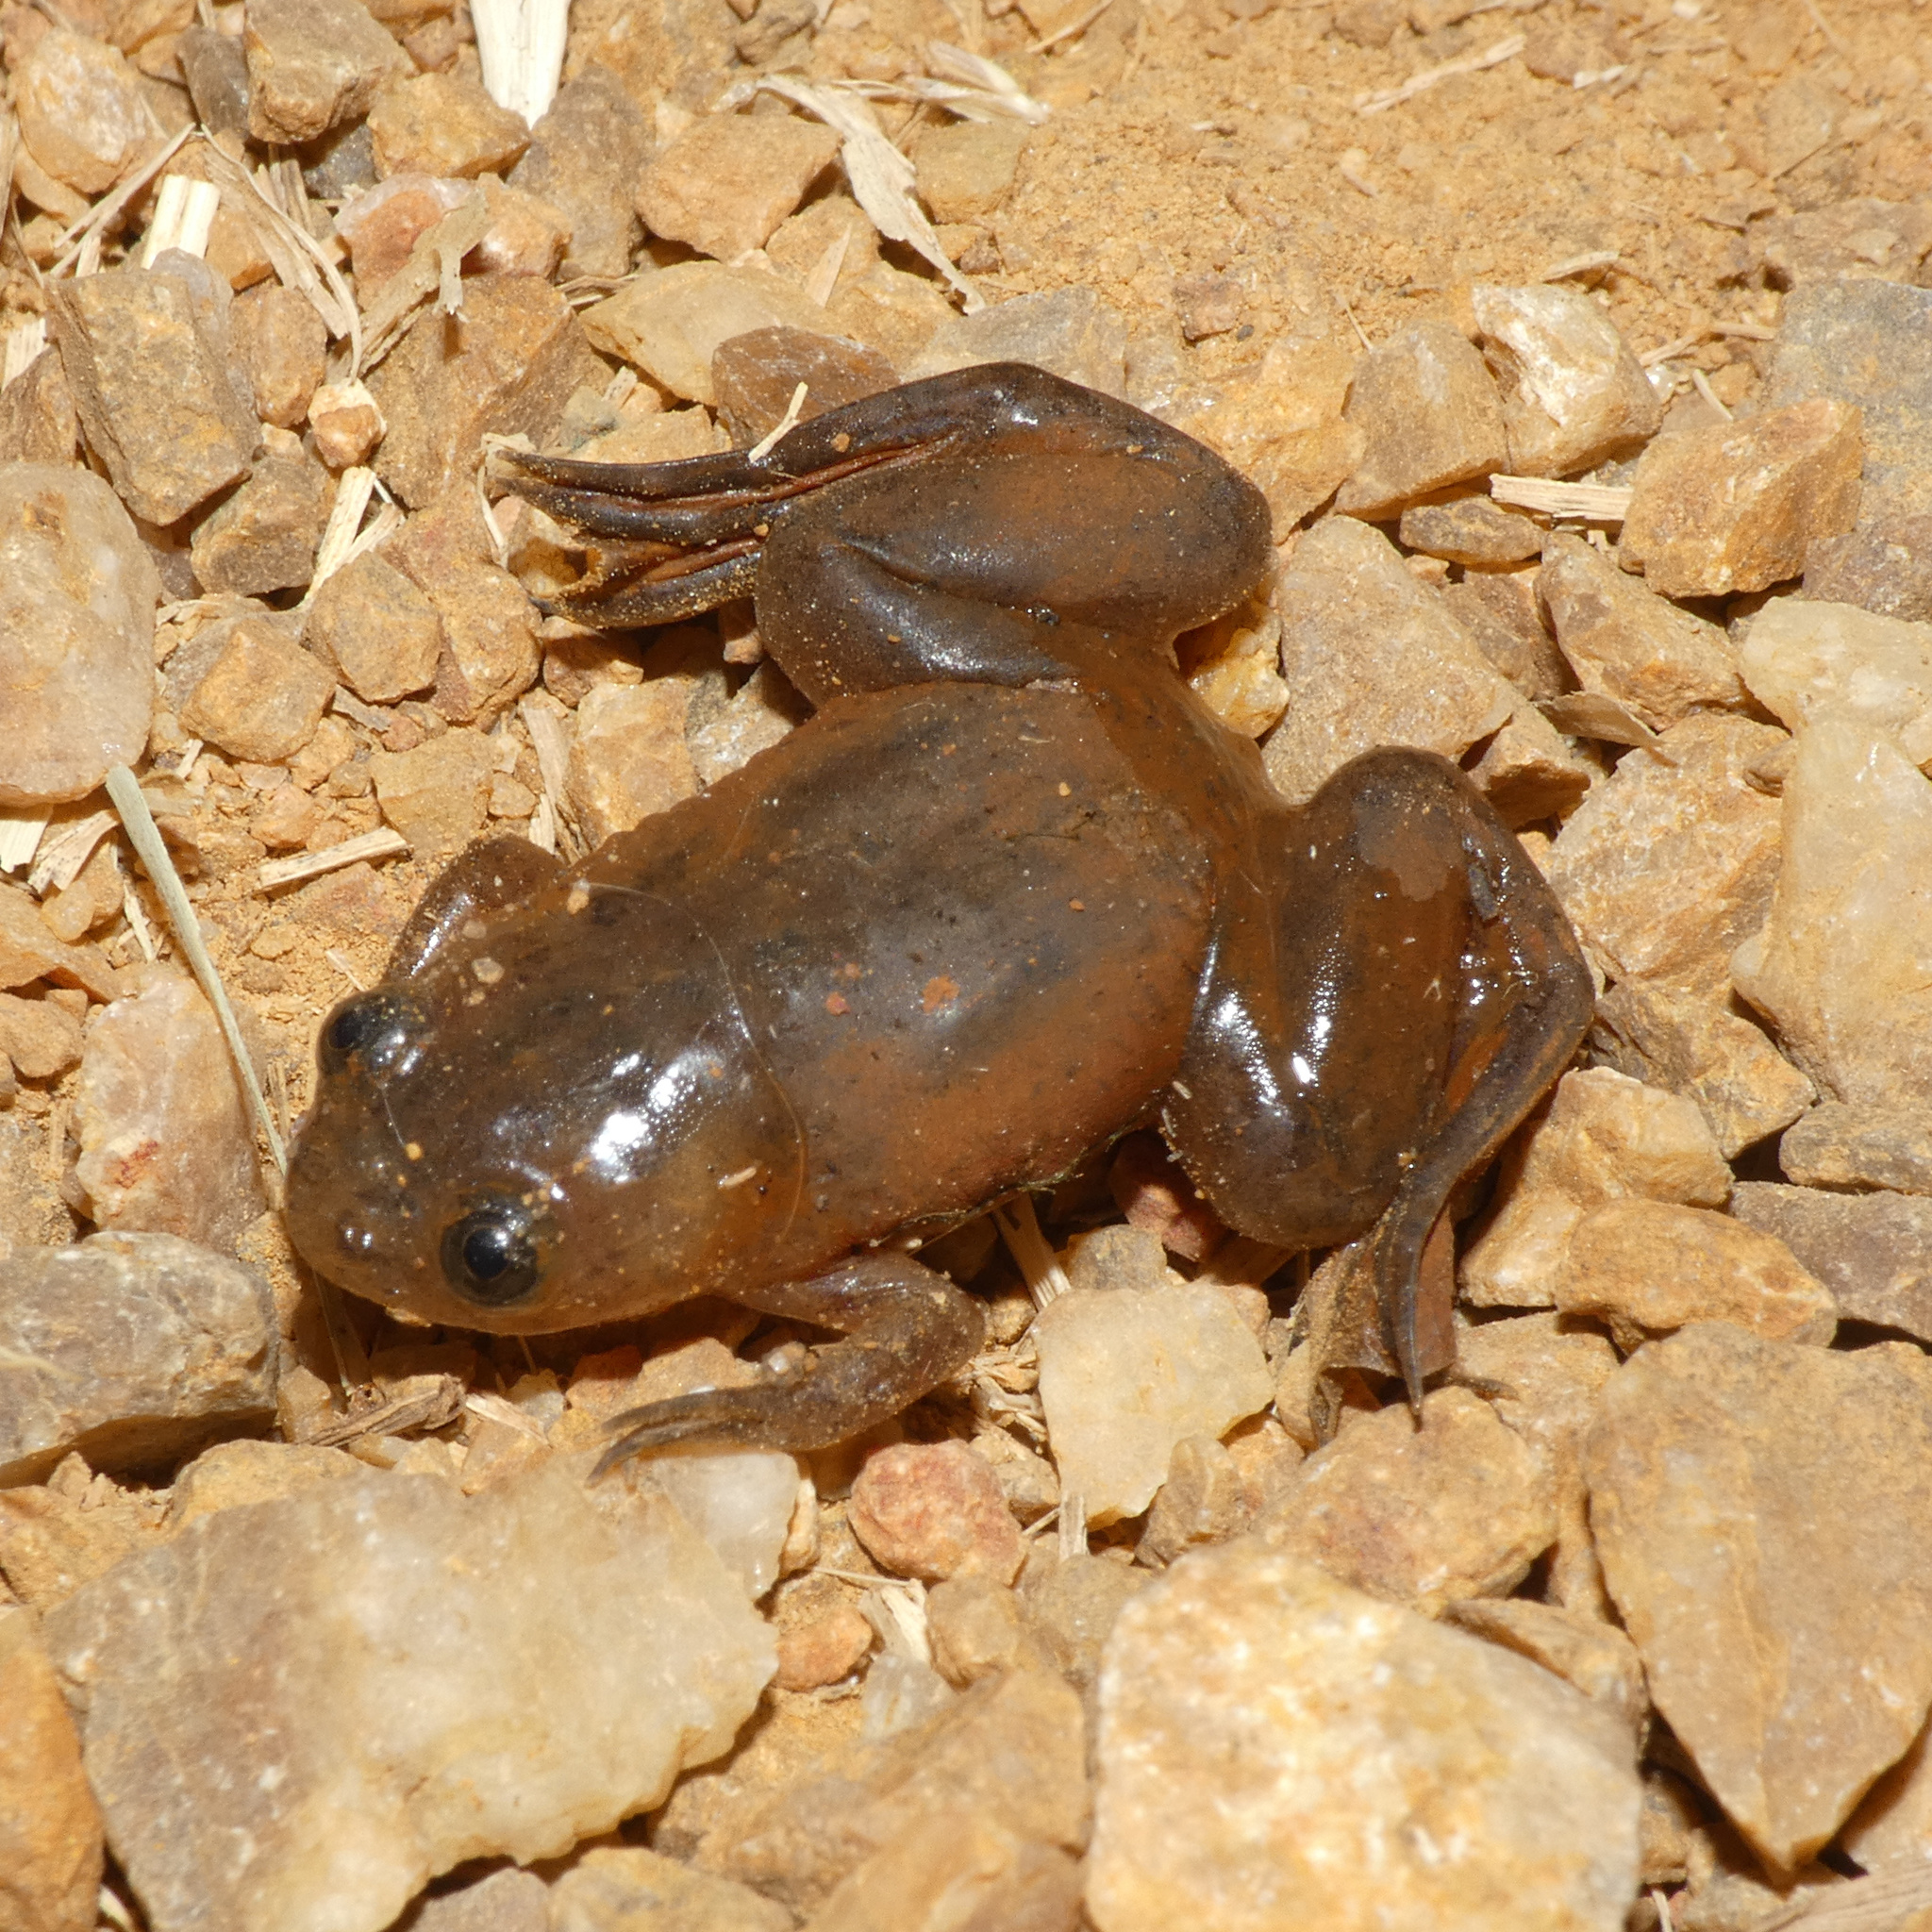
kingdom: Animalia
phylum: Chordata
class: Amphibia
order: Anura
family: Pipidae
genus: Xenopus
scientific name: Xenopus laevis
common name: African clawed frog
